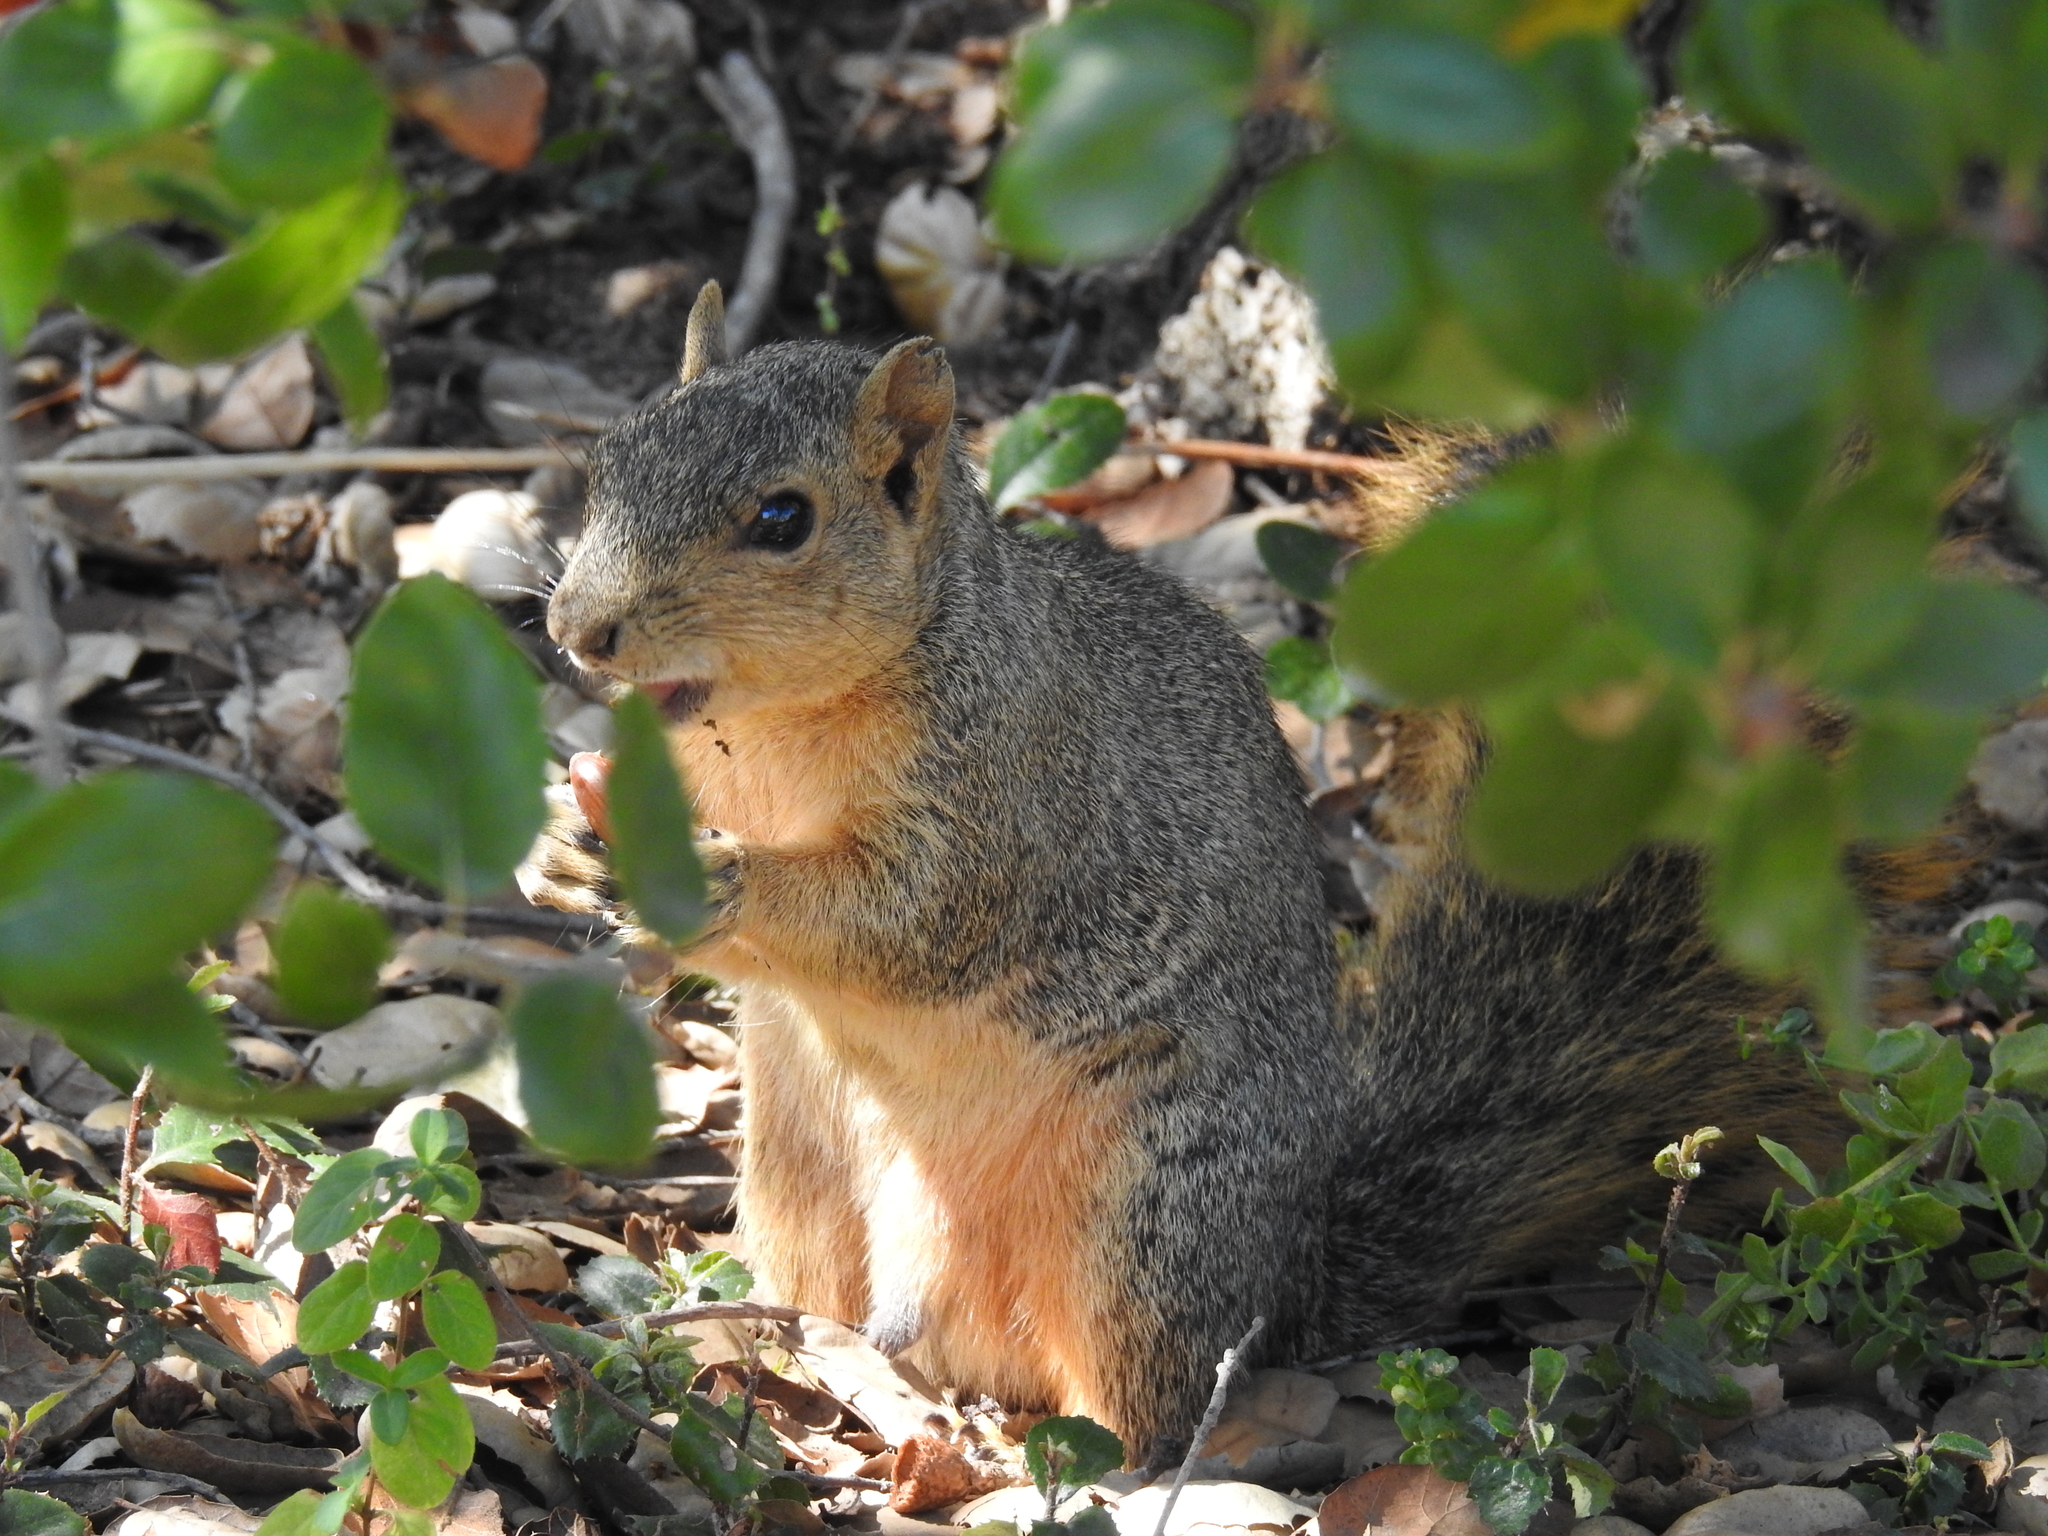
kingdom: Animalia
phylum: Chordata
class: Mammalia
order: Rodentia
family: Sciuridae
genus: Sciurus
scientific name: Sciurus niger
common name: Fox squirrel
